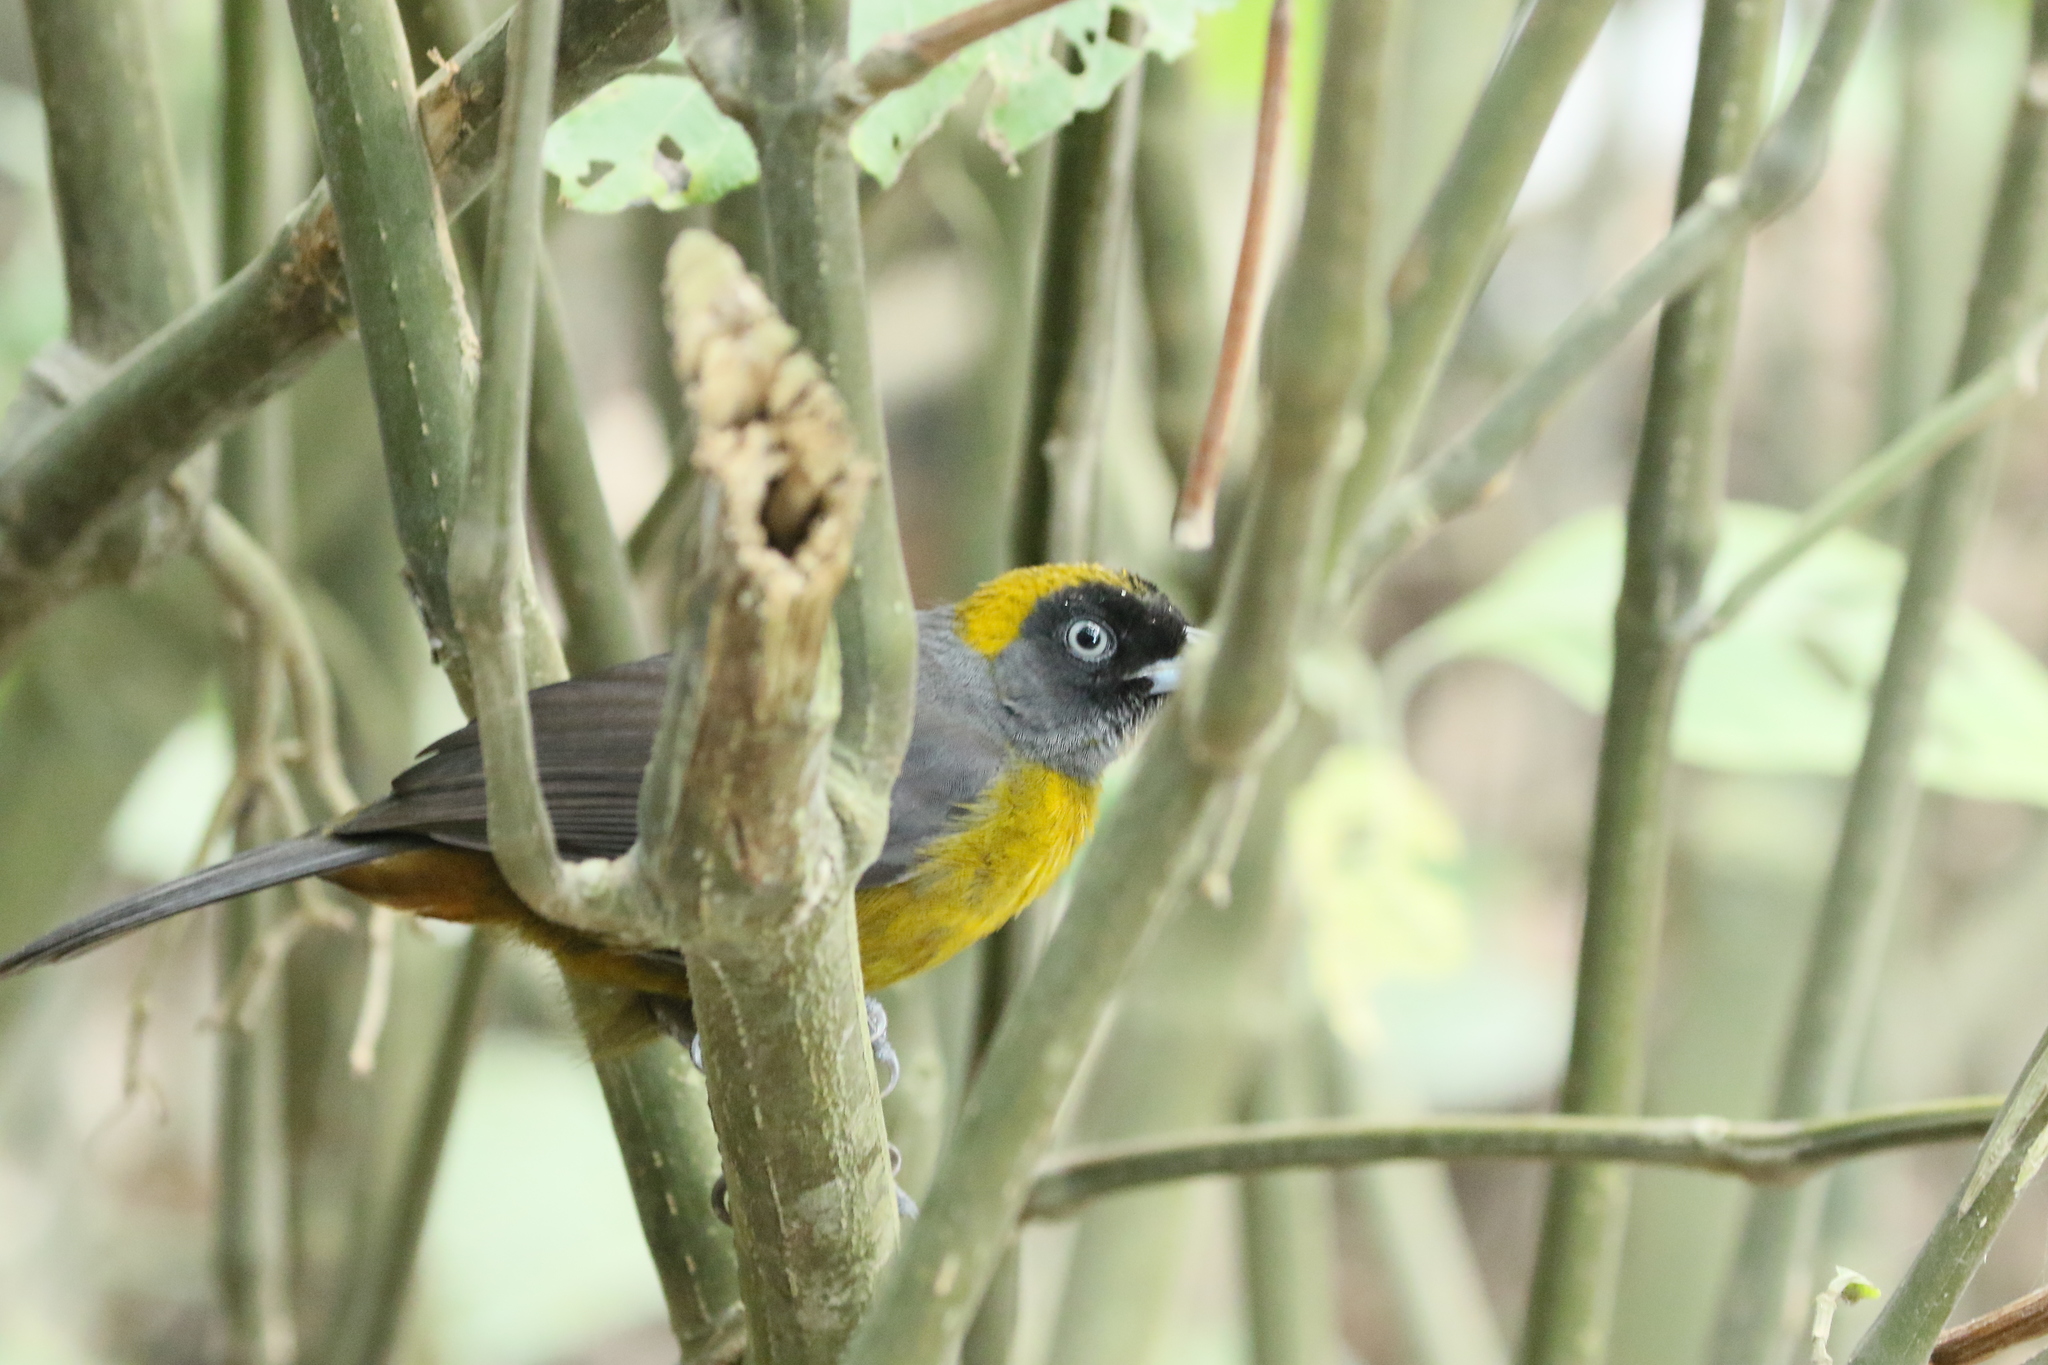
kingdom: Animalia
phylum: Chordata
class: Aves
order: Passeriformes
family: Mitrospingidae
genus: Mitrospingus
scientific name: Mitrospingus cassinii
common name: Dusky-faced tanager
